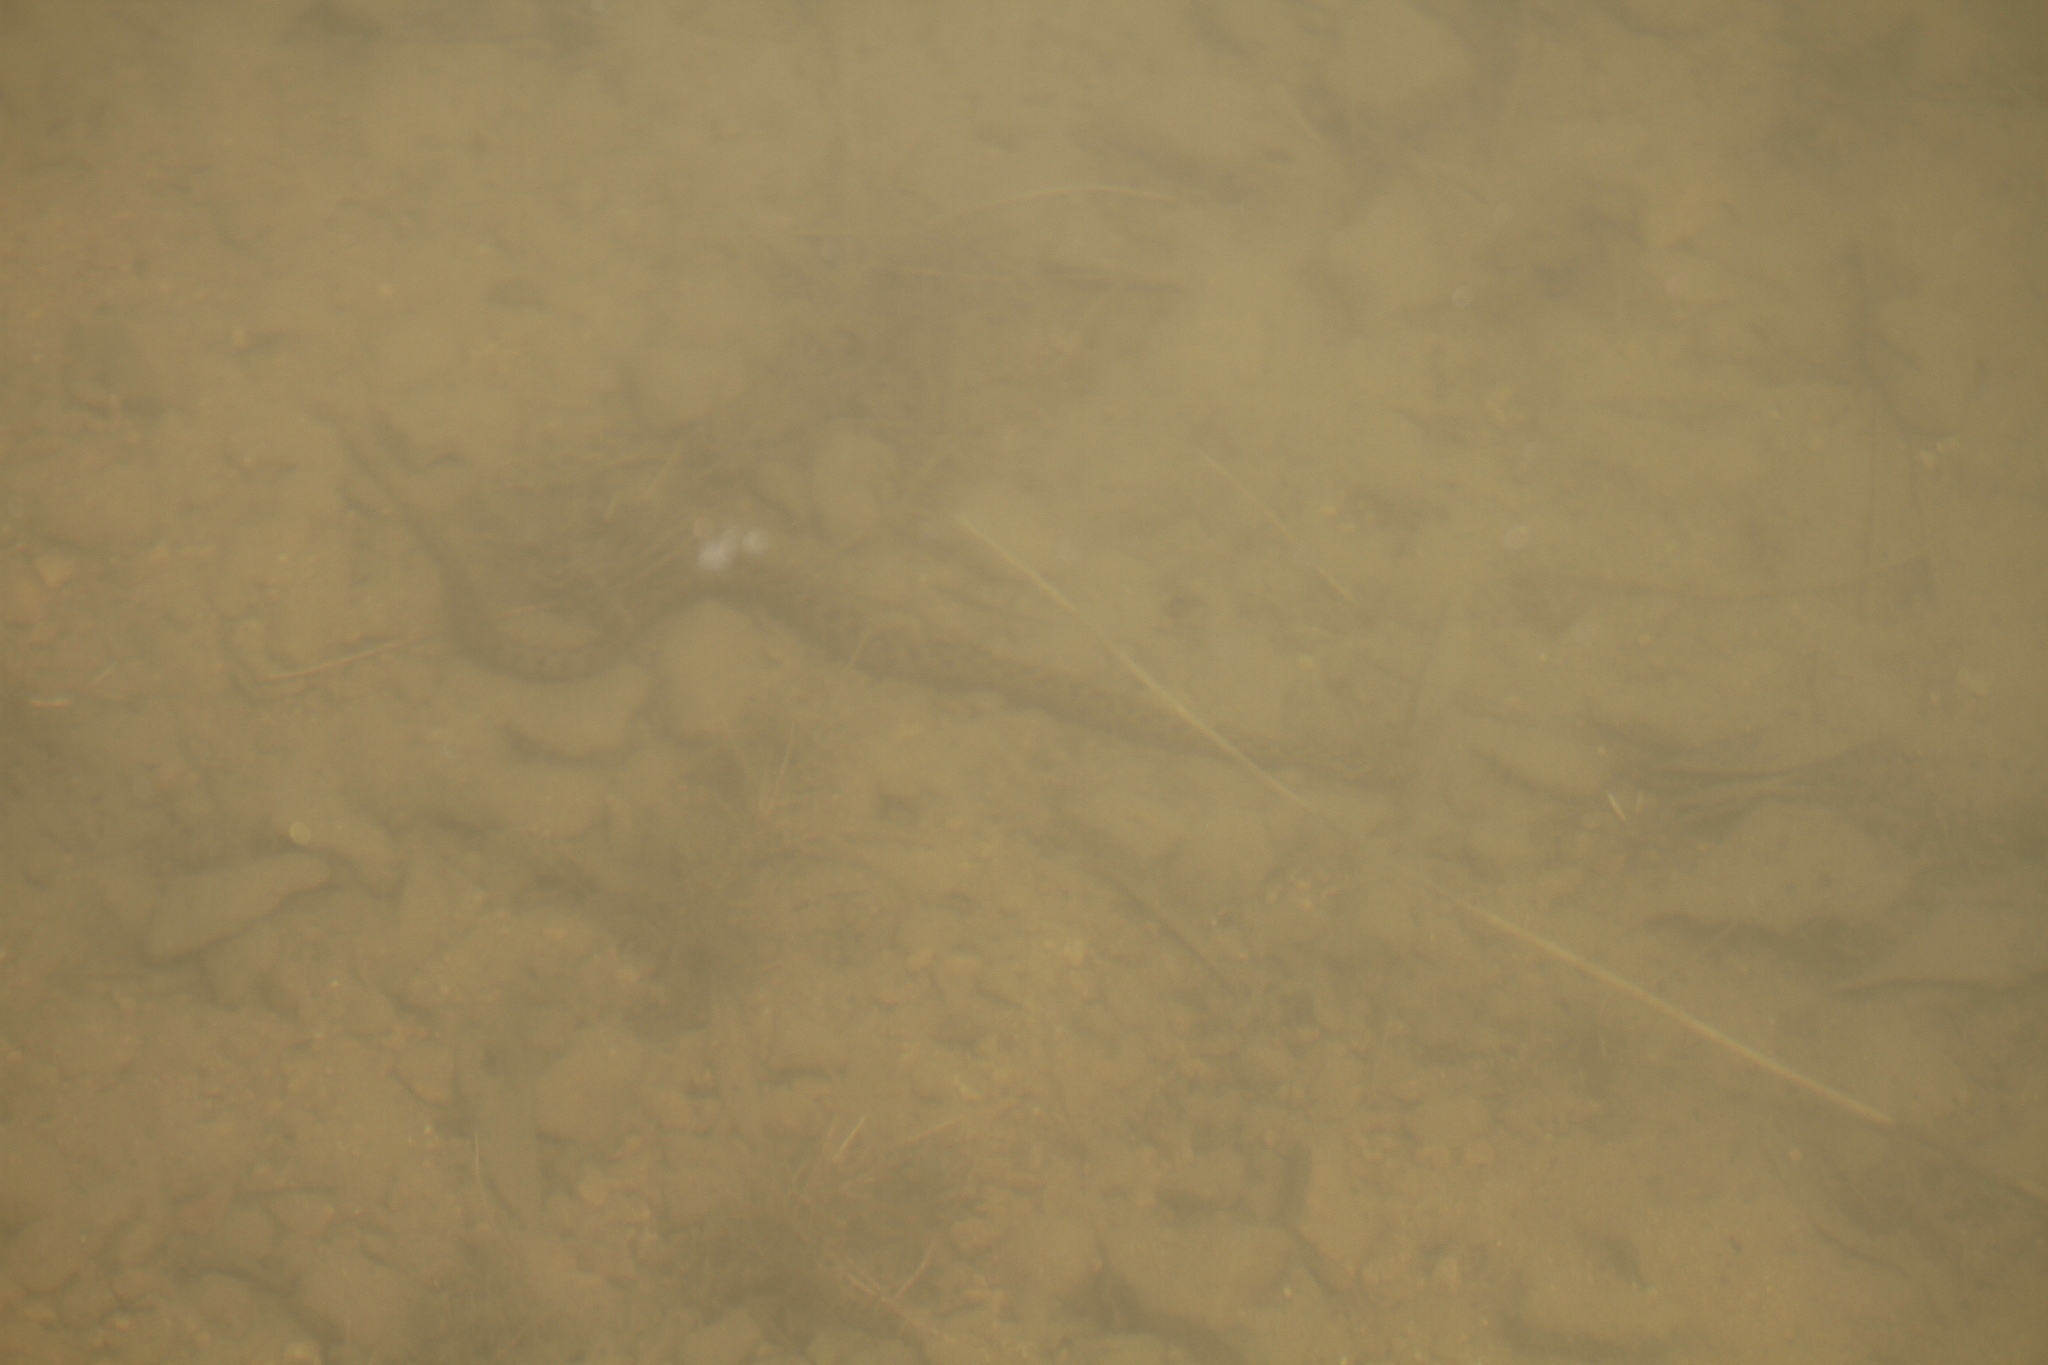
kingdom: Animalia
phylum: Chordata
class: Squamata
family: Colubridae
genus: Natrix
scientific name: Natrix maura
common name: Viperine water snake
